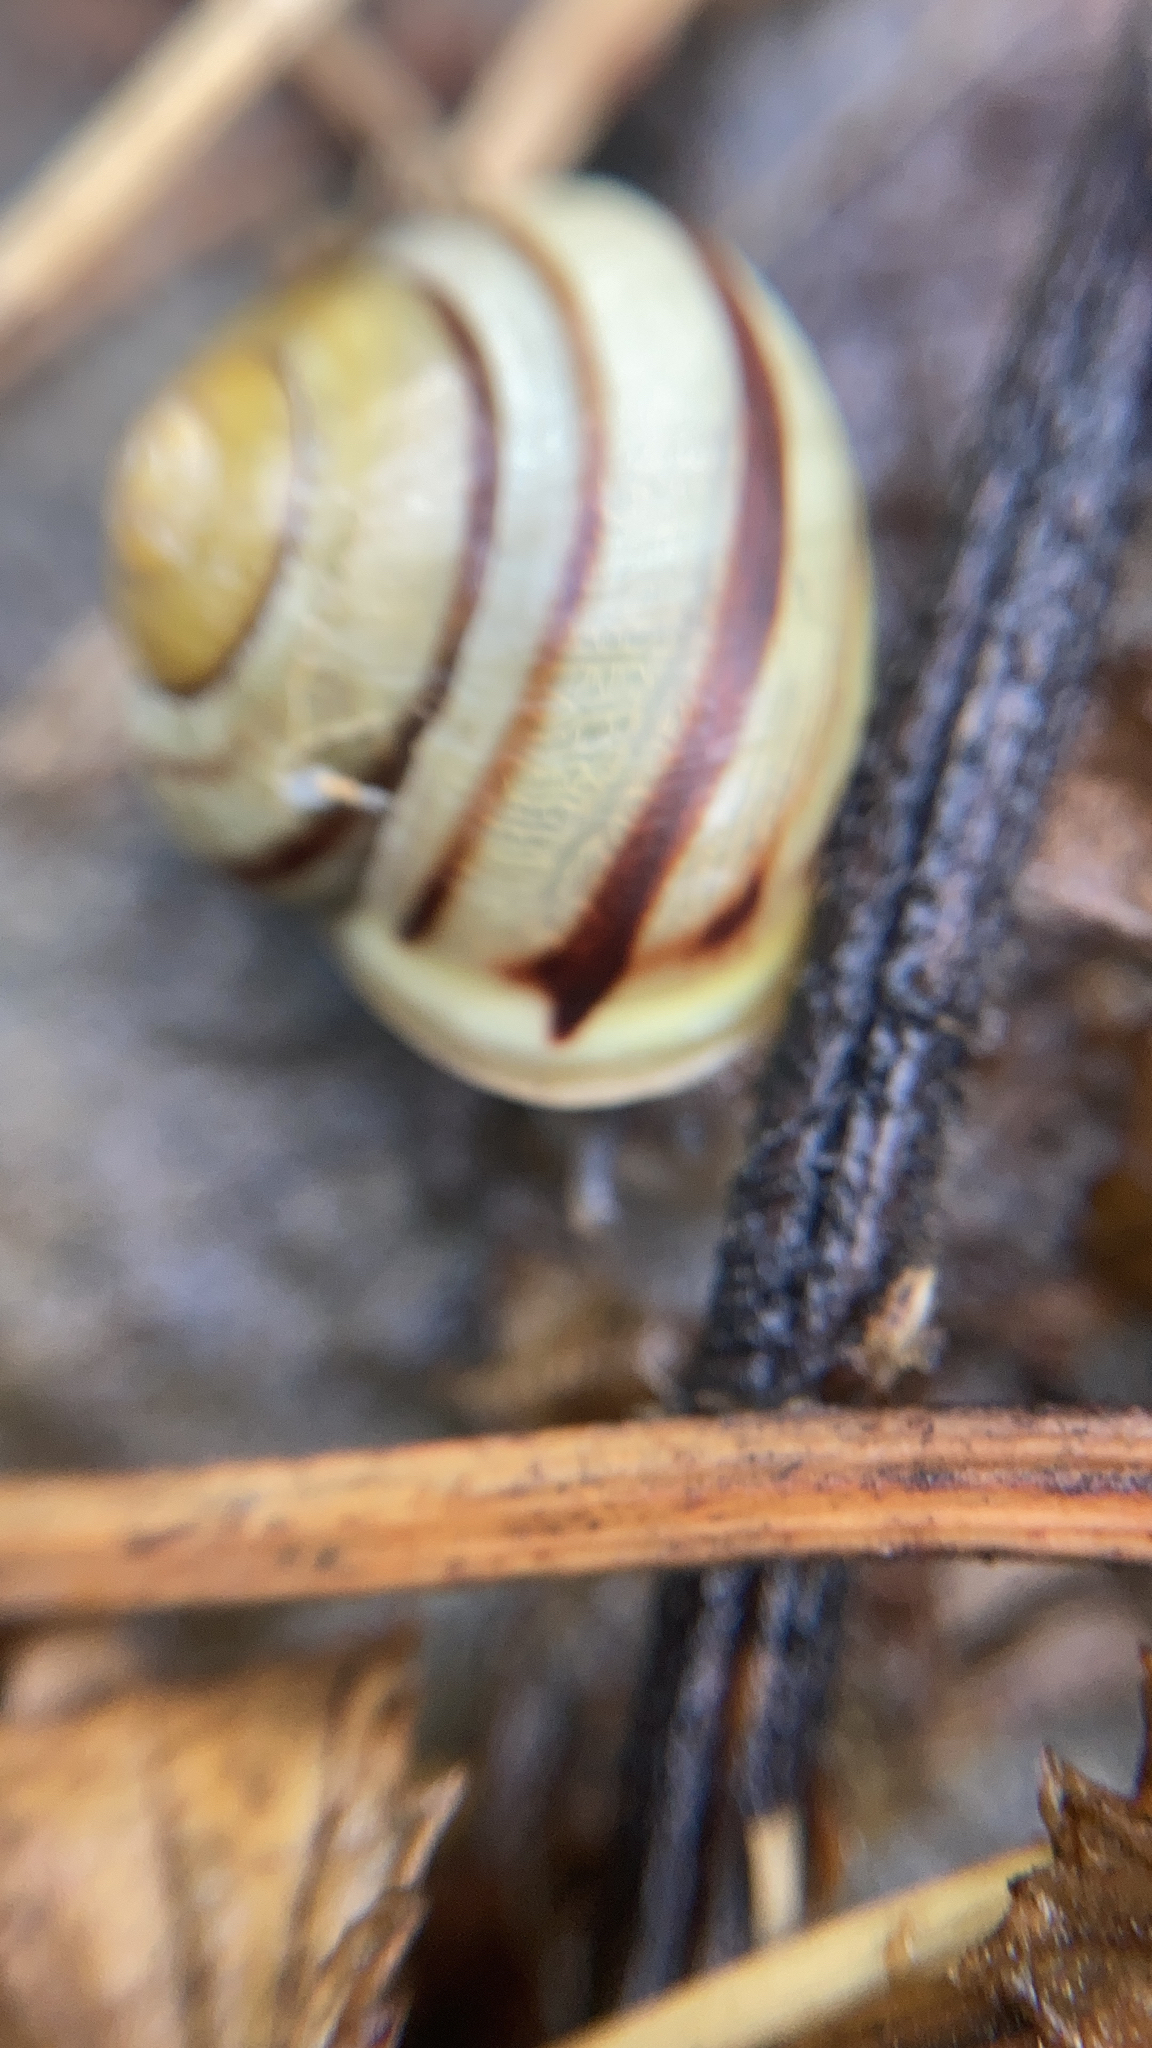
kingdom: Animalia
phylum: Mollusca
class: Gastropoda
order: Stylommatophora
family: Helicidae
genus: Cepaea
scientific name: Cepaea hortensis
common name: White-lip gardensnail
